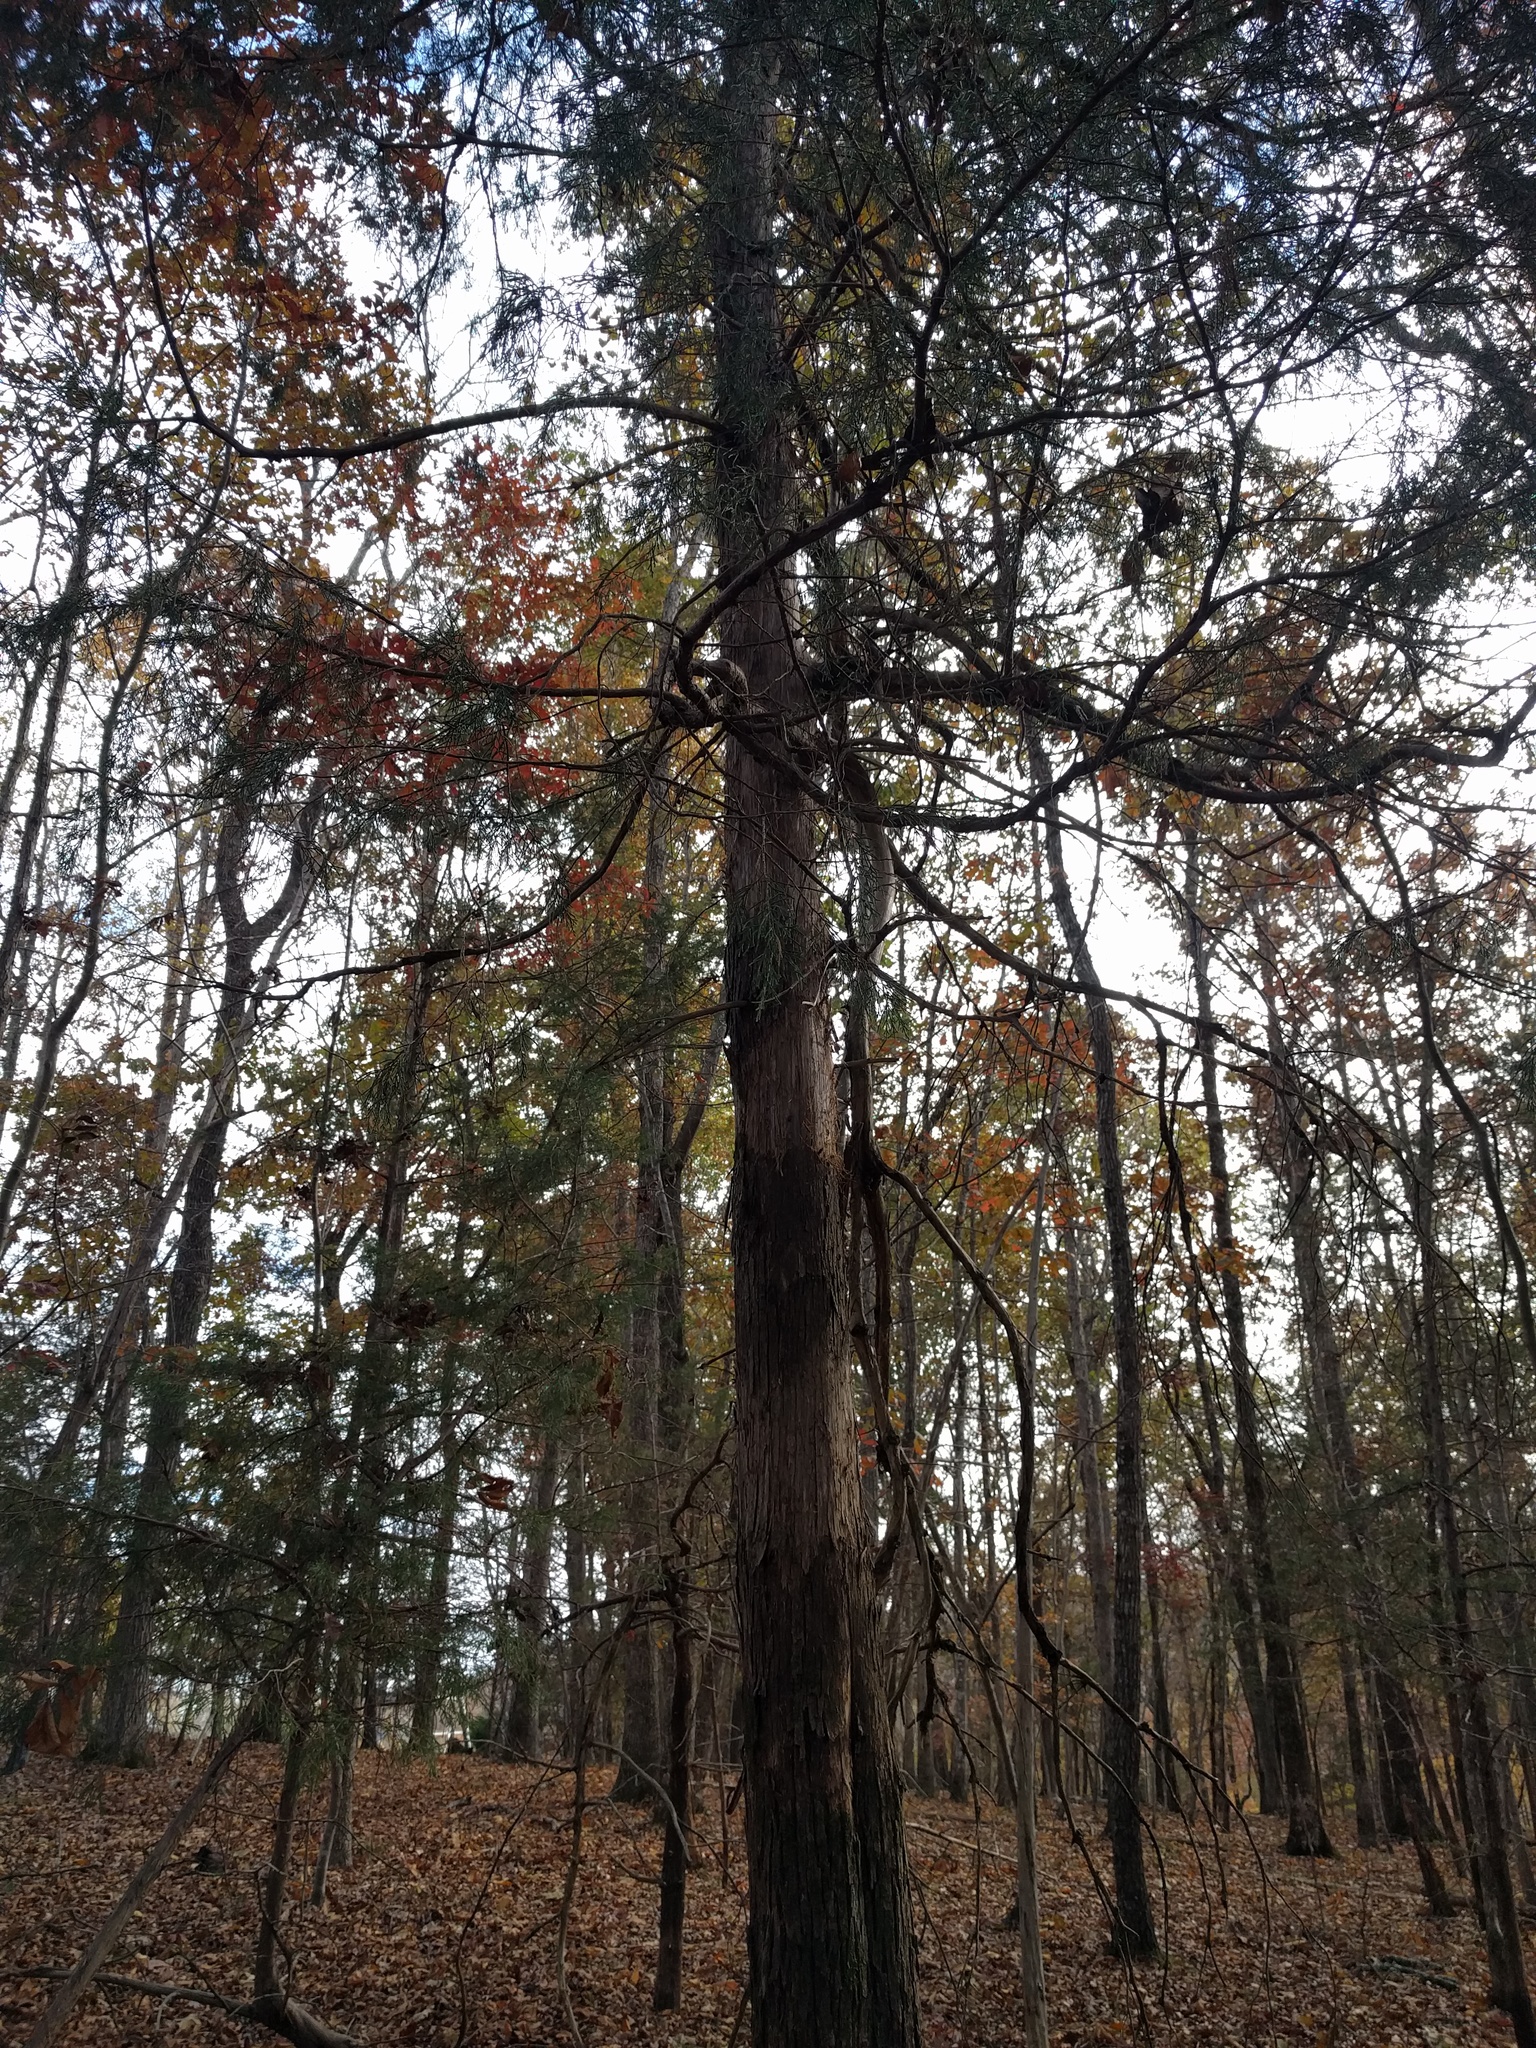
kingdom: Plantae
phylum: Tracheophyta
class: Pinopsida
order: Pinales
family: Cupressaceae
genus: Juniperus
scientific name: Juniperus virginiana
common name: Red juniper
